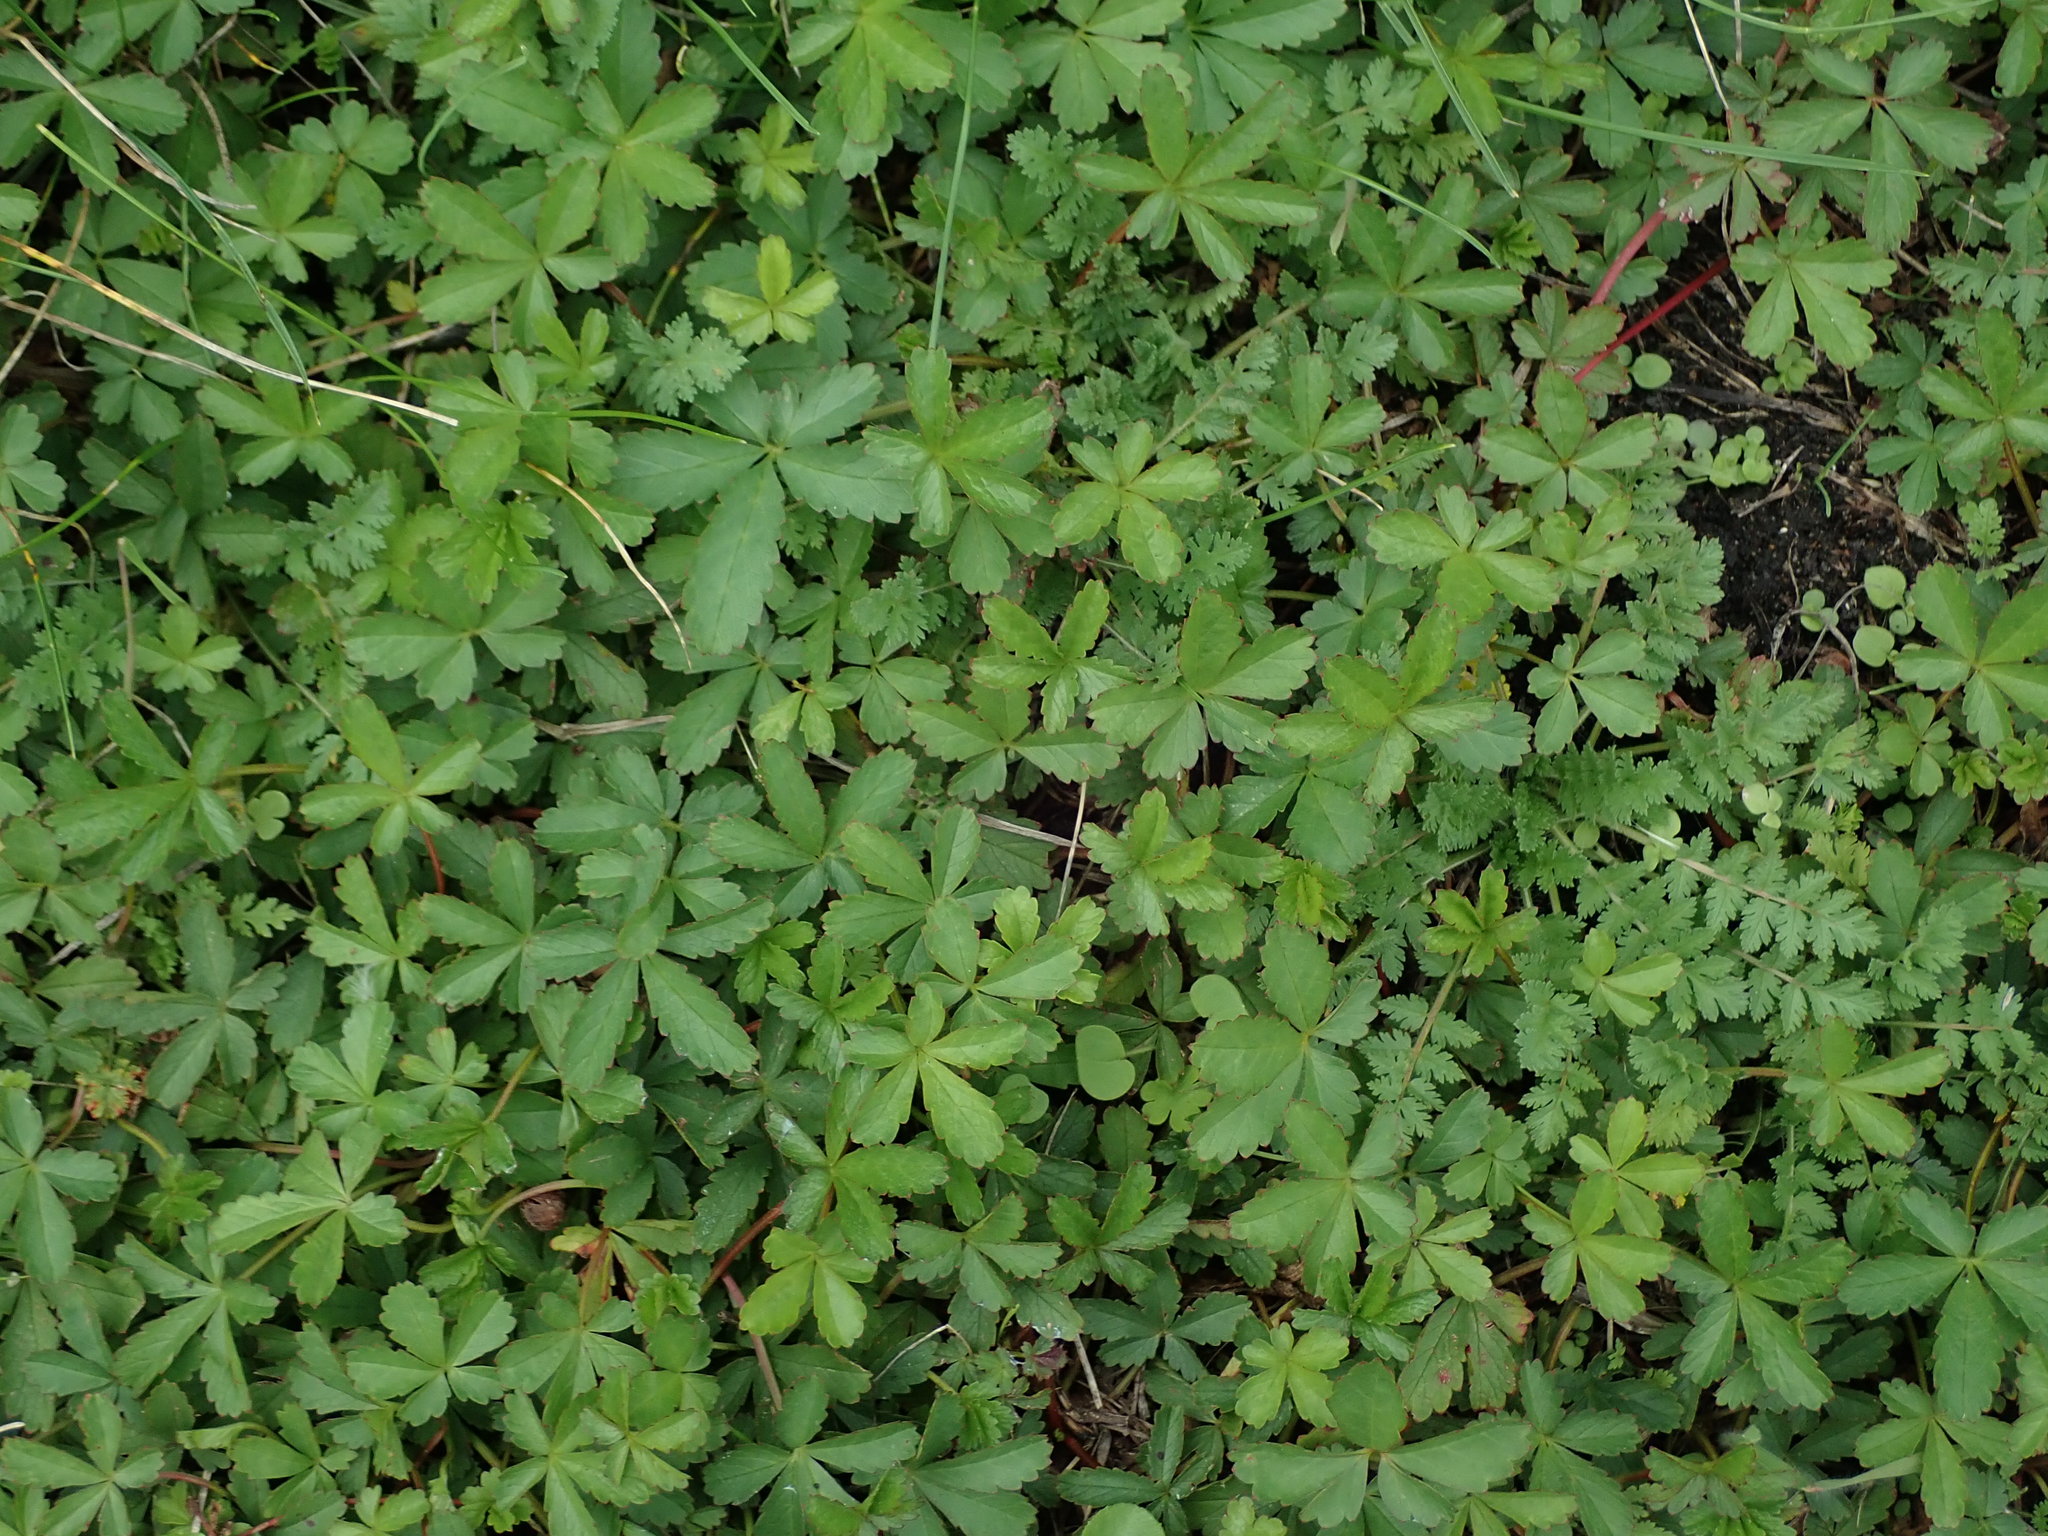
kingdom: Plantae
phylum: Tracheophyta
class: Magnoliopsida
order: Rosales
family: Rosaceae
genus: Potentilla
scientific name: Potentilla reptans
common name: Creeping cinquefoil
